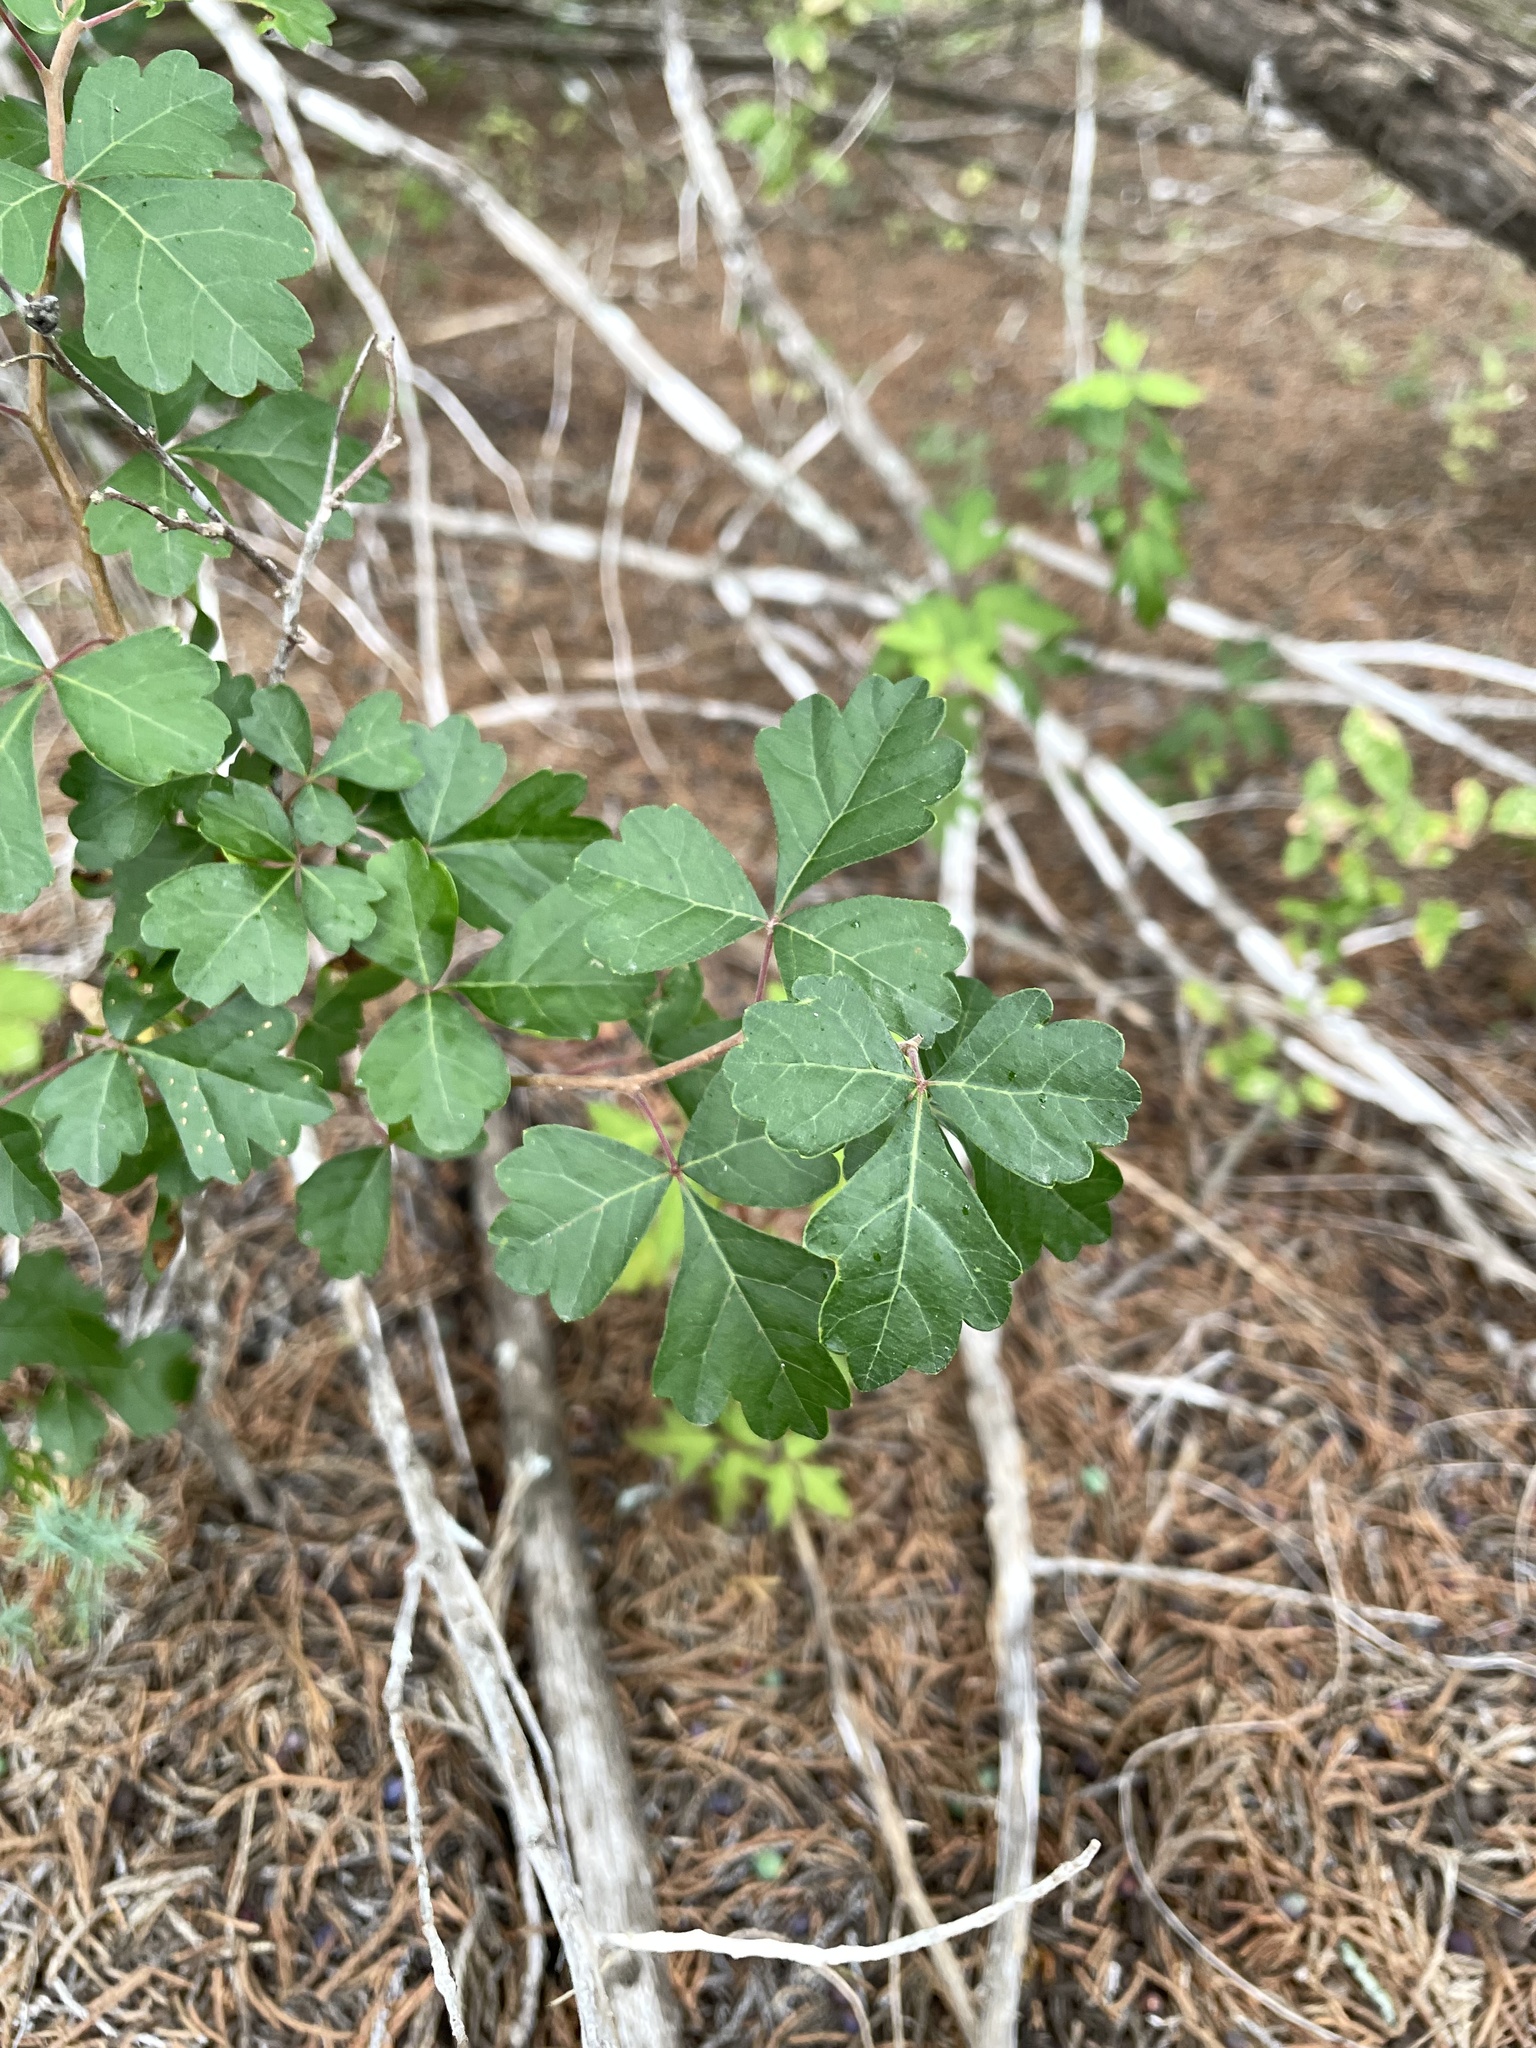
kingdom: Plantae
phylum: Tracheophyta
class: Magnoliopsida
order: Sapindales
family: Anacardiaceae
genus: Rhus
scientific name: Rhus aromatica
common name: Aromatic sumac
